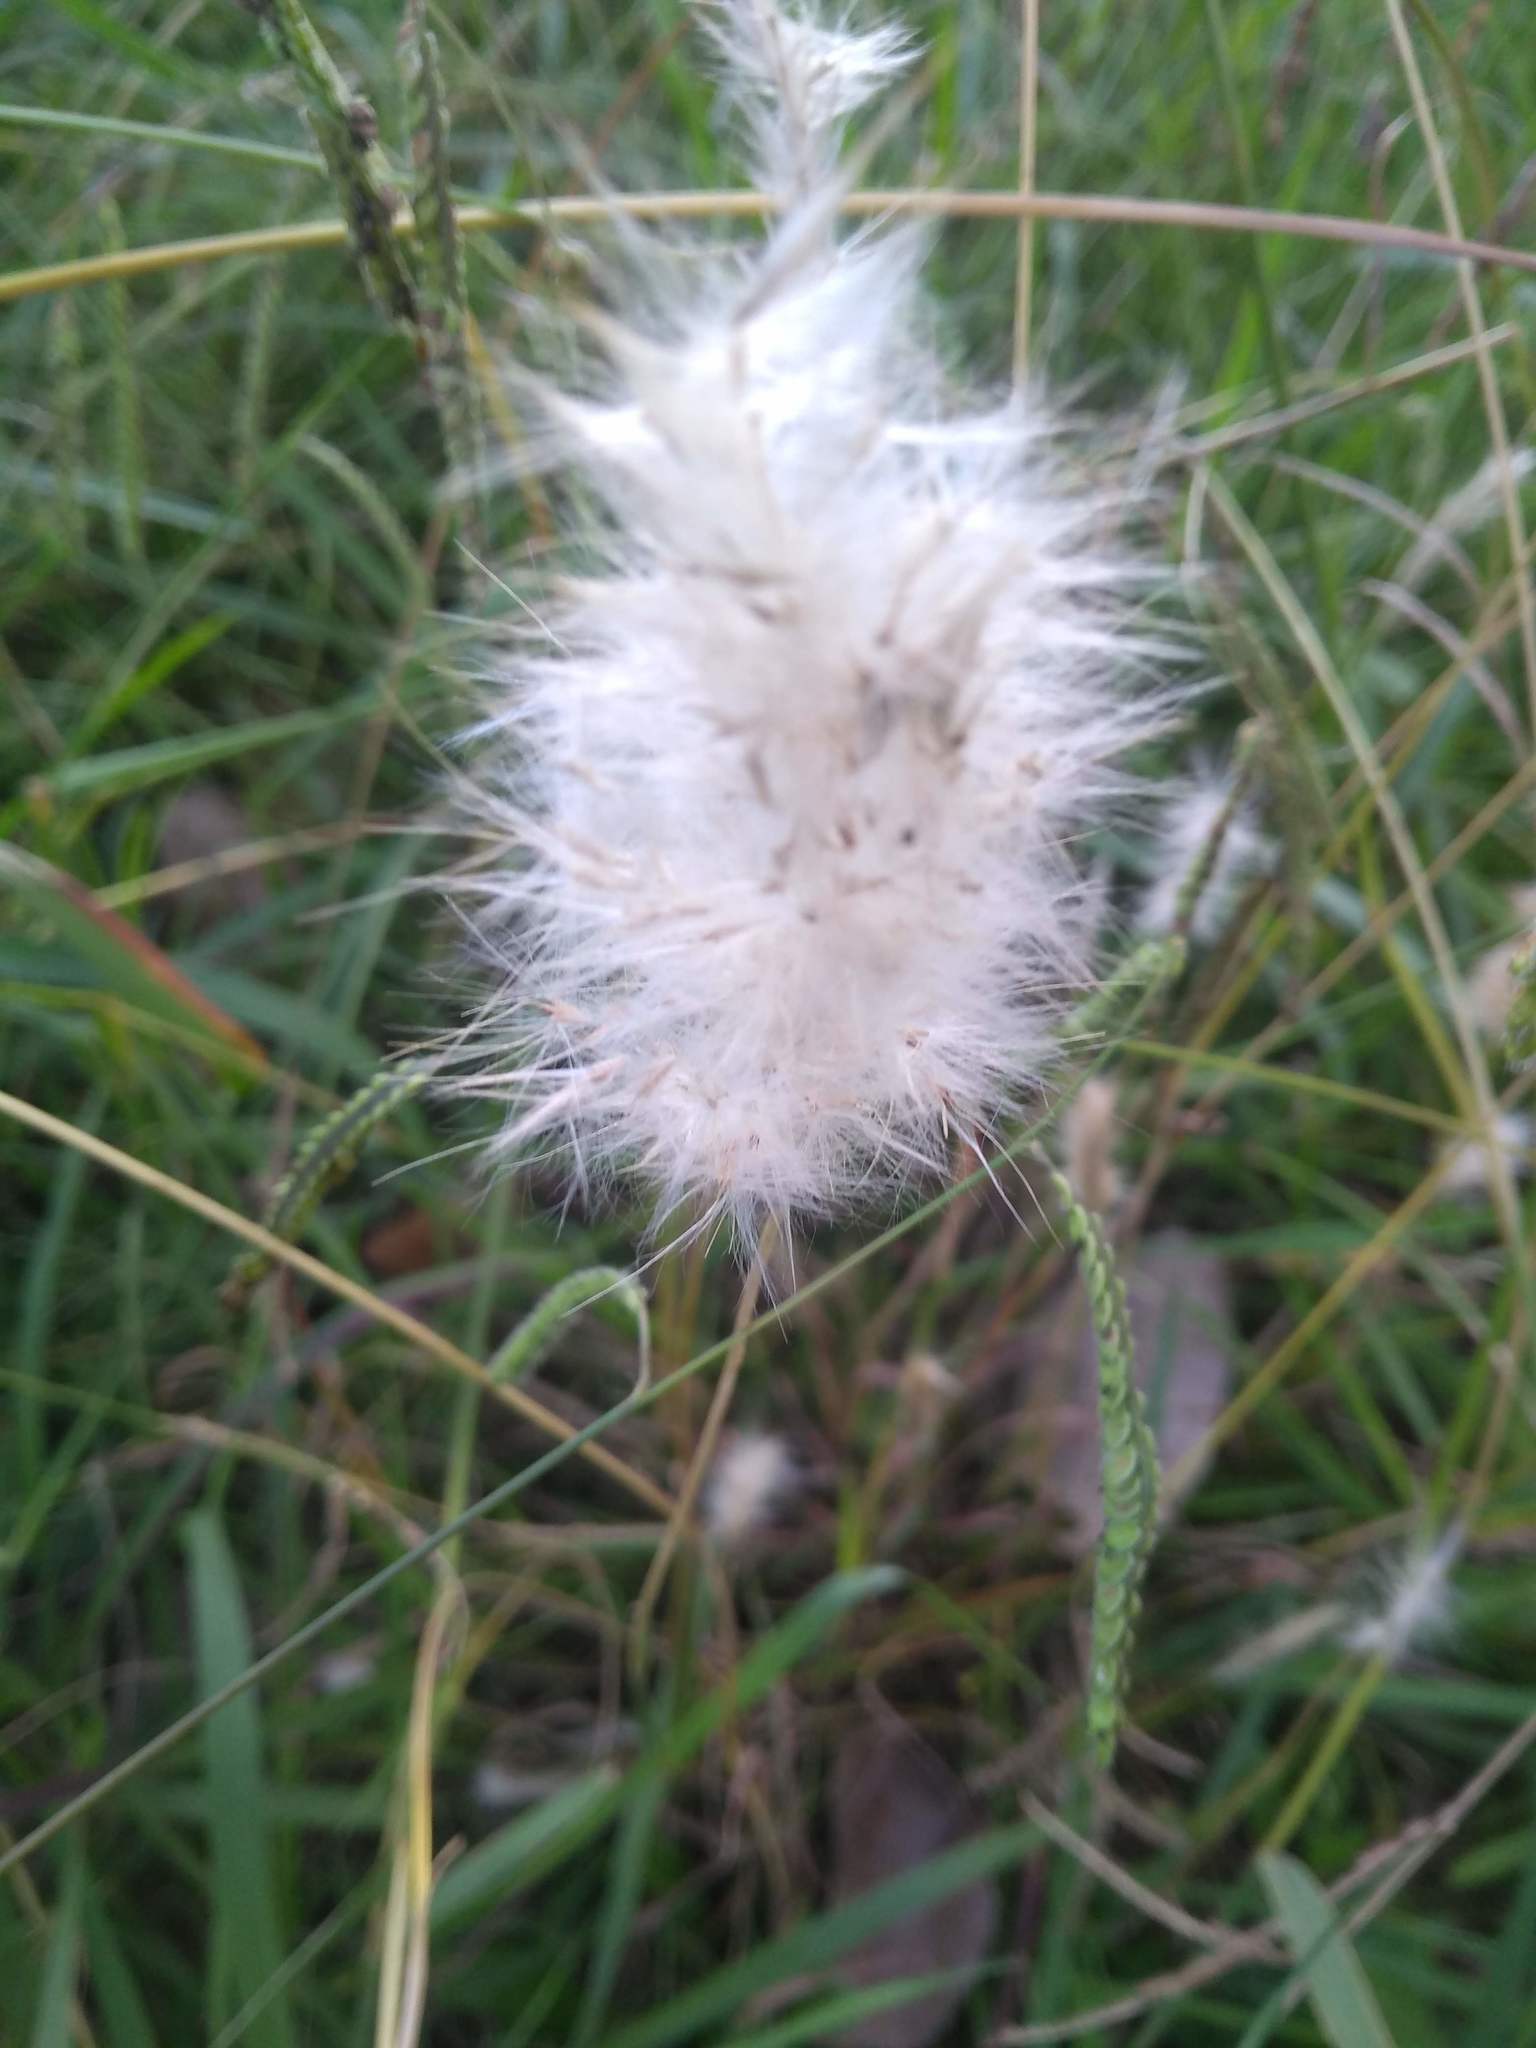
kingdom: Plantae
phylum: Tracheophyta
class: Liliopsida
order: Poales
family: Poaceae
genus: Bothriochloa
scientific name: Bothriochloa laguroides
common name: Silver bluestem
